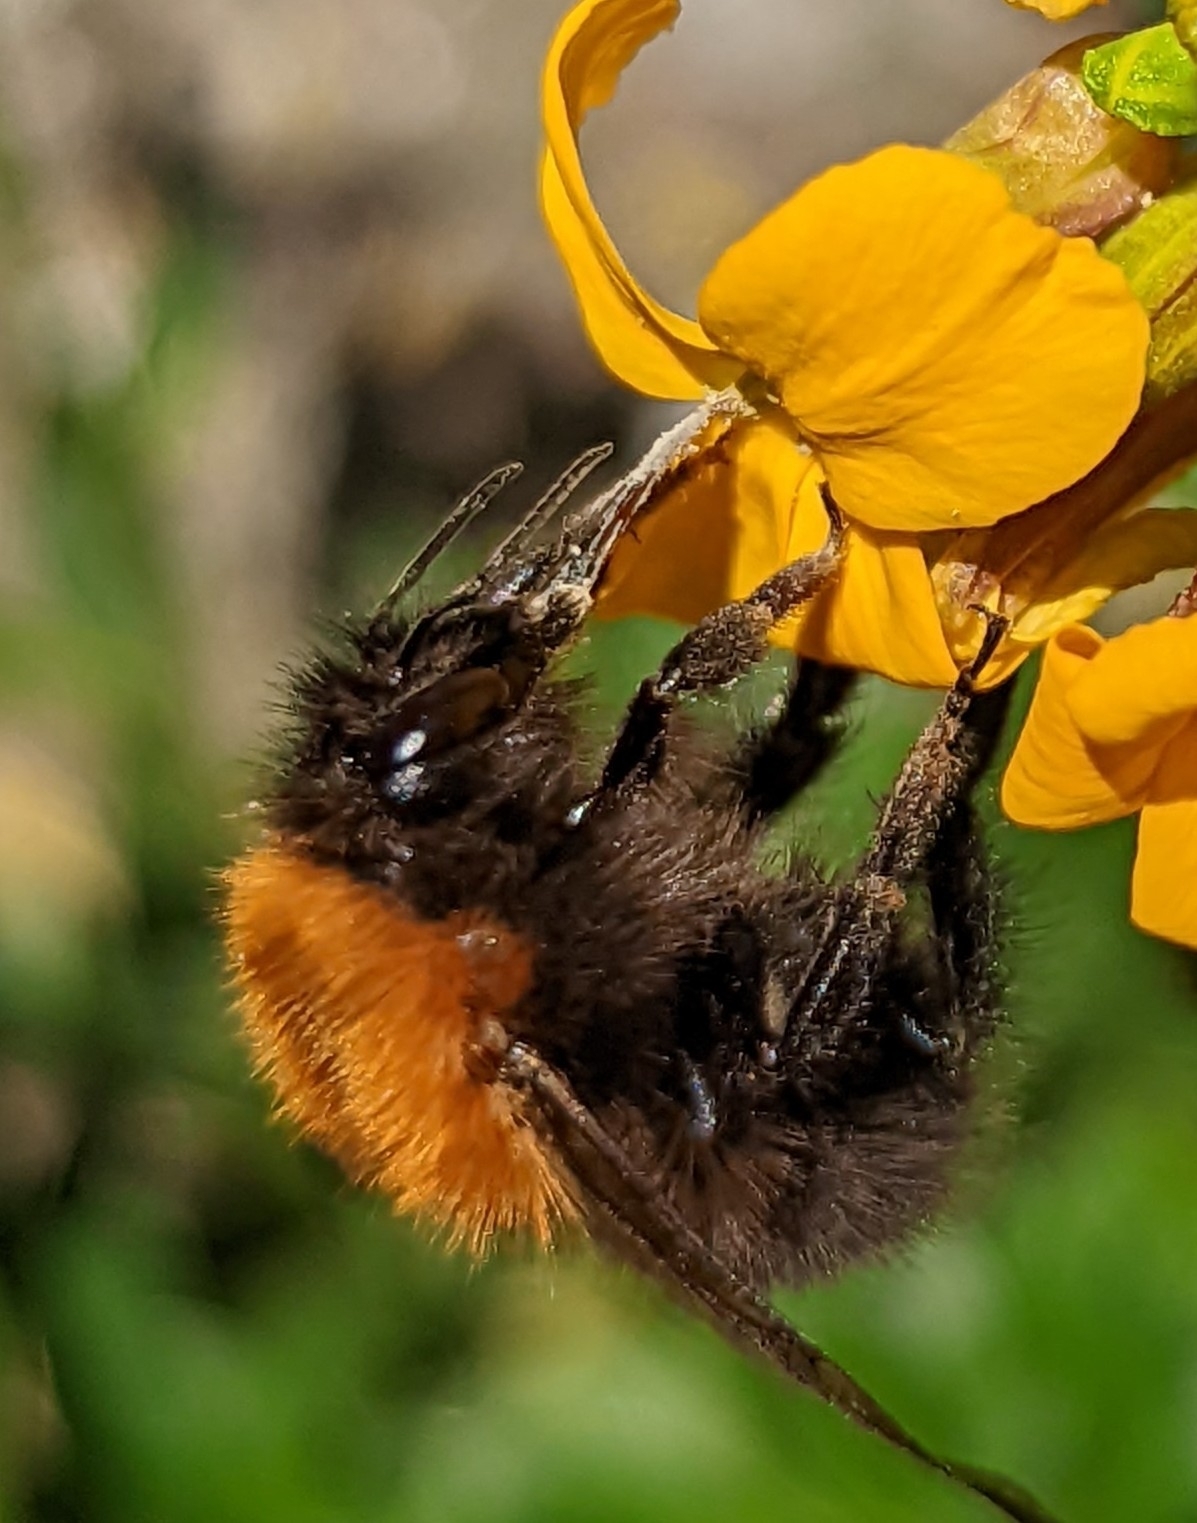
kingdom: Animalia
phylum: Arthropoda
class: Insecta
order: Hymenoptera
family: Apidae
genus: Bombus
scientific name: Bombus pascuorum
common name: Common carder bee
